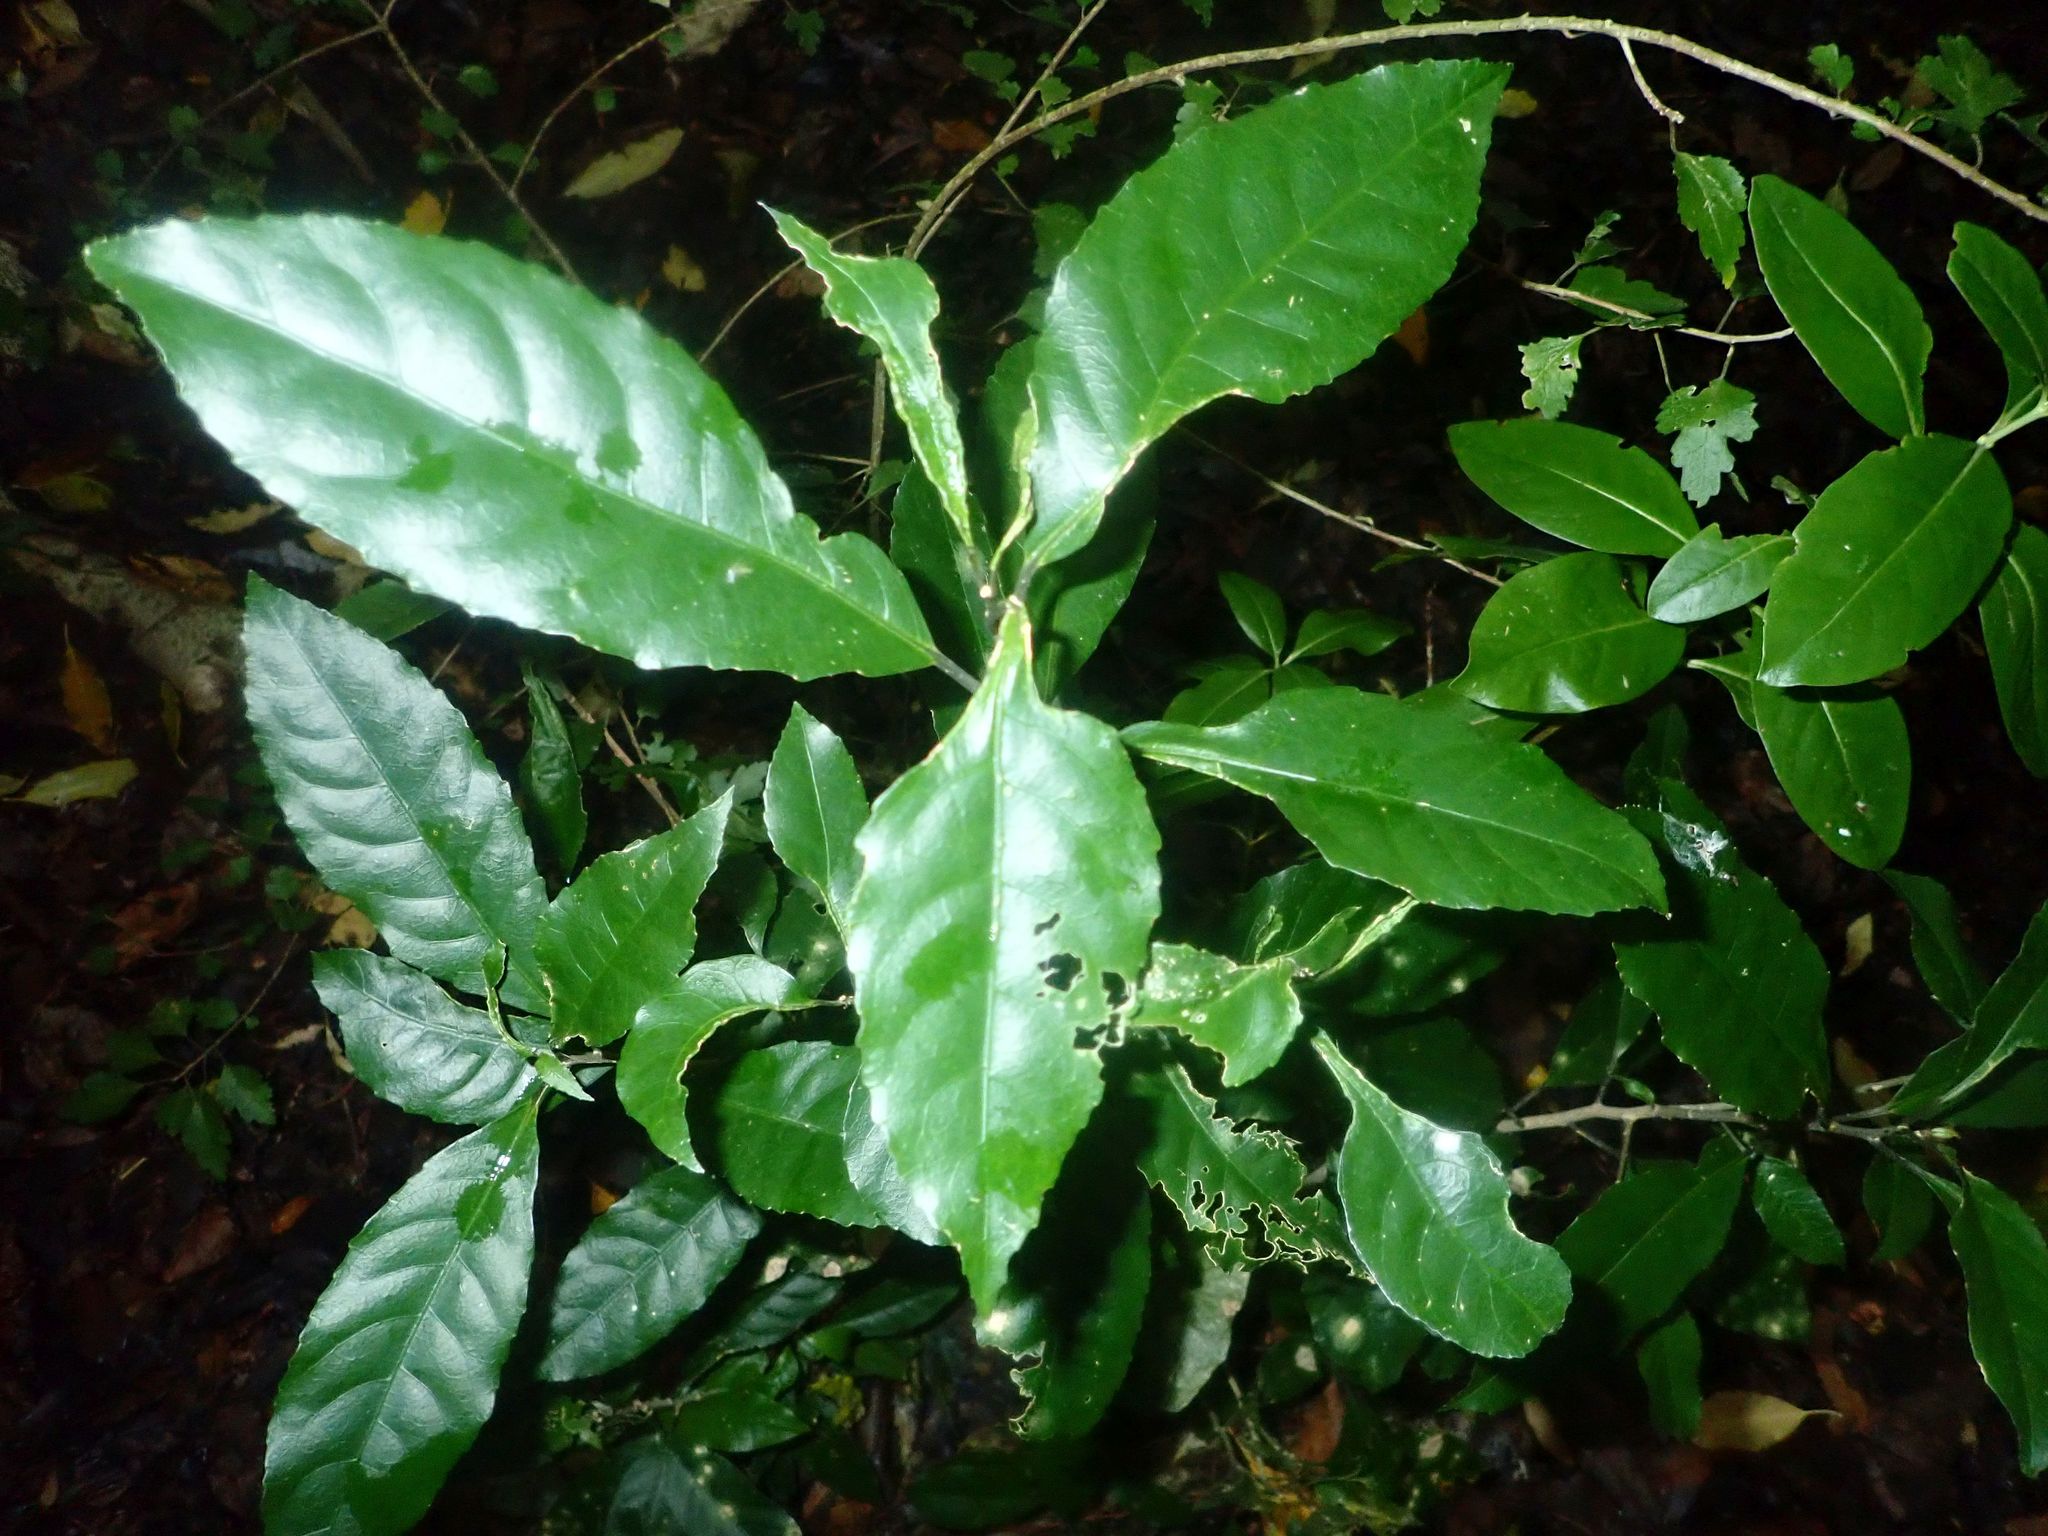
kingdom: Plantae
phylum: Tracheophyta
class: Magnoliopsida
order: Malpighiales
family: Violaceae
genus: Melicytus
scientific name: Melicytus ramiflorus
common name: Mahoe
